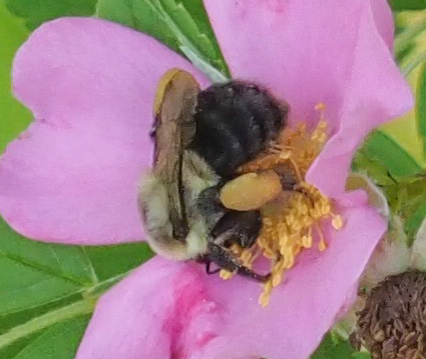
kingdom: Animalia
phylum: Arthropoda
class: Insecta
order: Hymenoptera
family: Apidae
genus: Bombus
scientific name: Bombus impatiens
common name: Common eastern bumble bee
